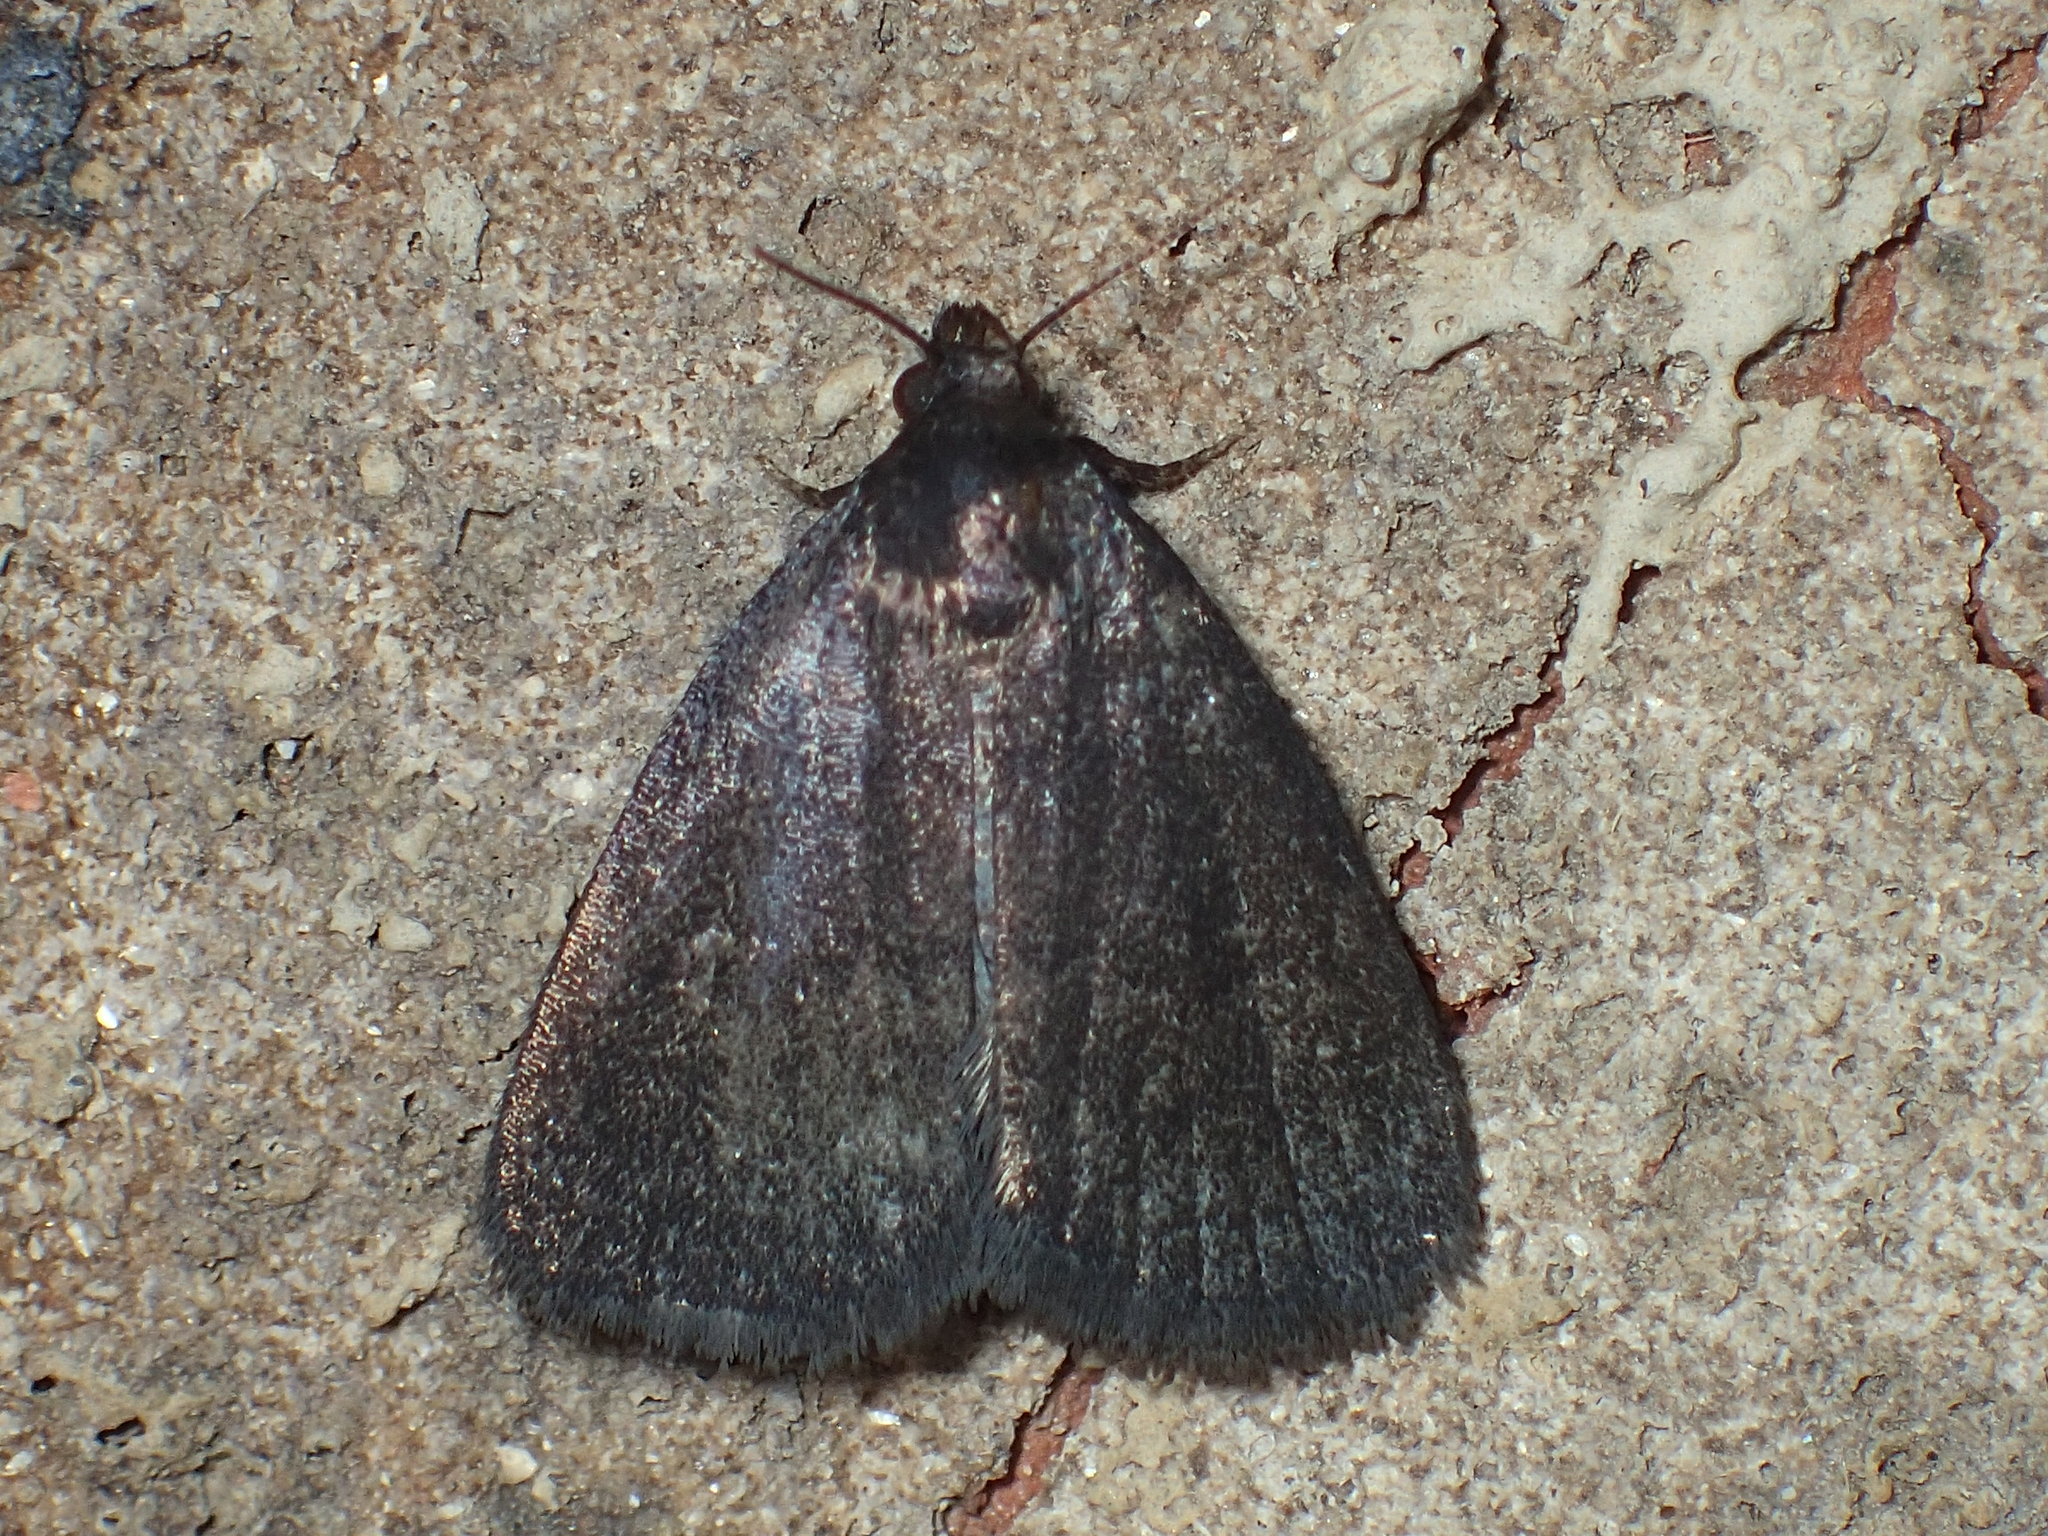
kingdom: Animalia
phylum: Arthropoda
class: Insecta
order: Lepidoptera
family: Erebidae
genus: Idia
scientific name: Idia rotundalis
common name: Rotund idia moth
